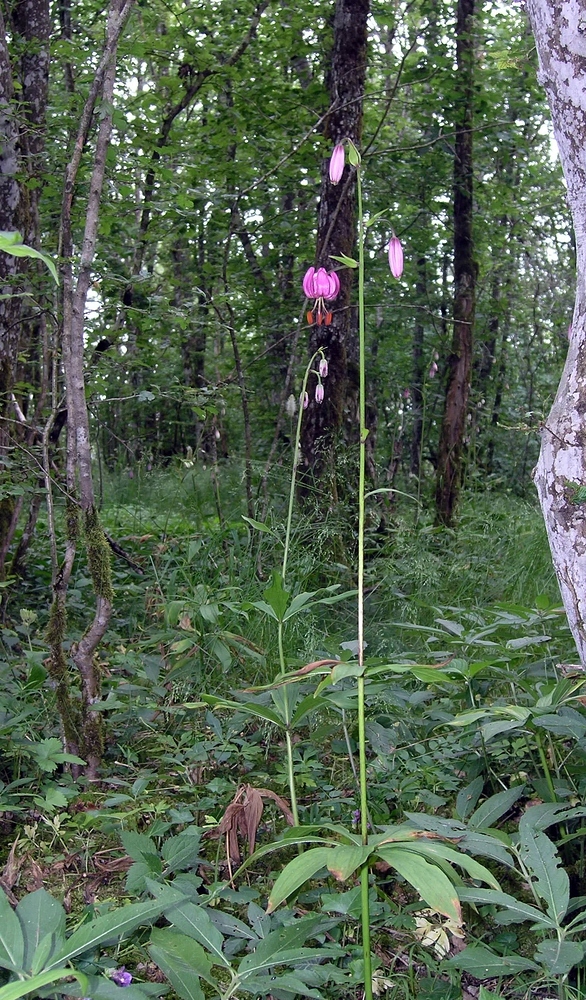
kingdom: Plantae
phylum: Tracheophyta
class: Liliopsida
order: Liliales
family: Liliaceae
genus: Lilium
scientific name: Lilium martagon
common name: Martagon lily
